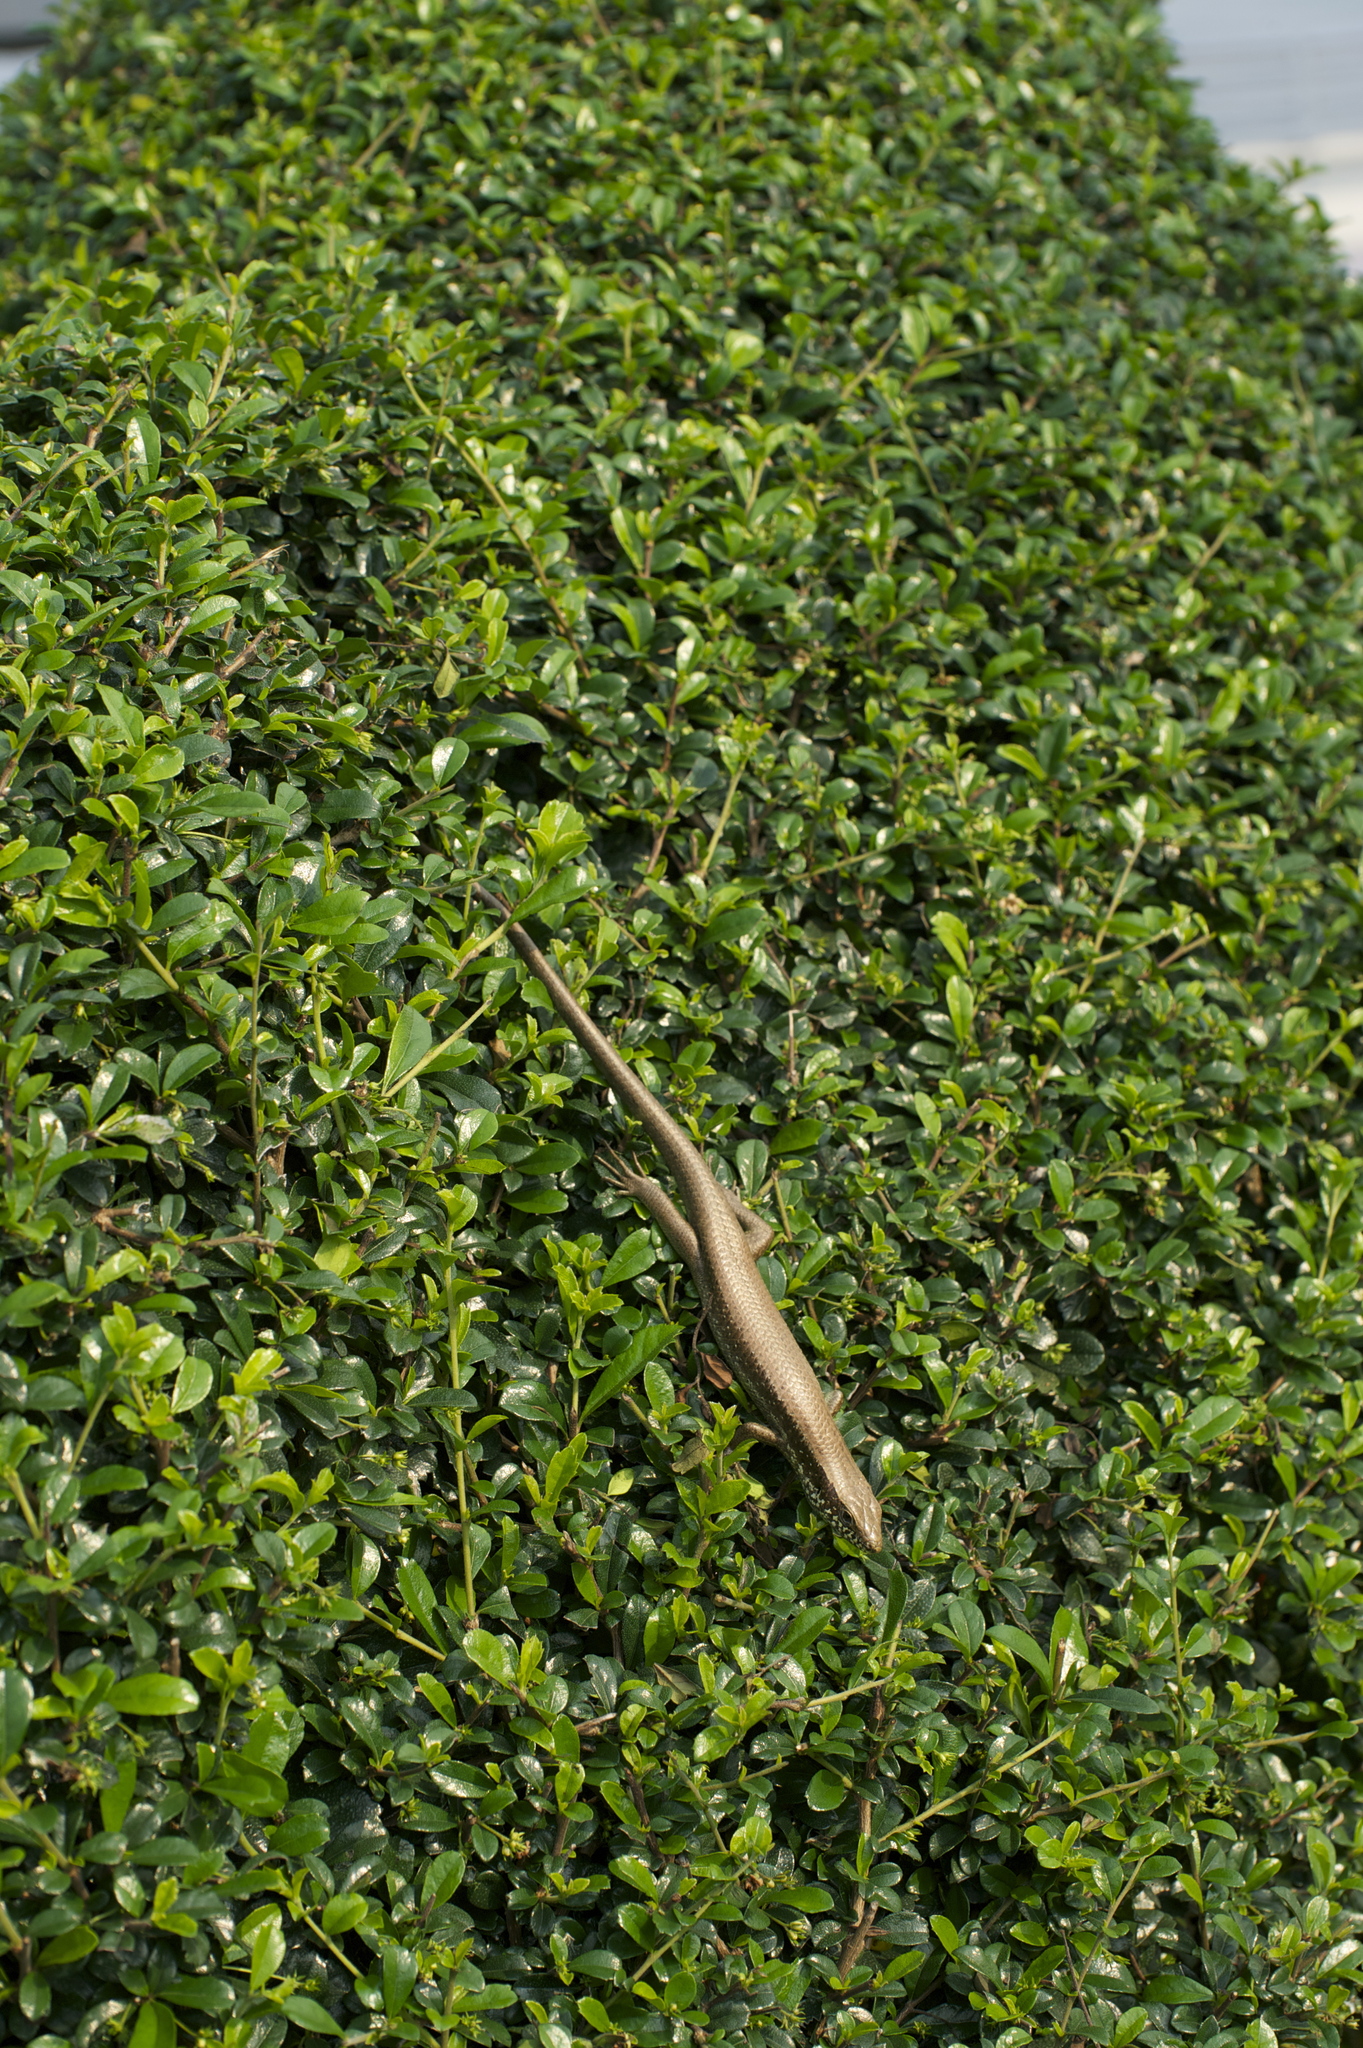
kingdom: Animalia
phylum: Chordata
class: Squamata
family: Scincidae
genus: Eutropis
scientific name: Eutropis longicaudata
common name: Long-tailed sun skink
